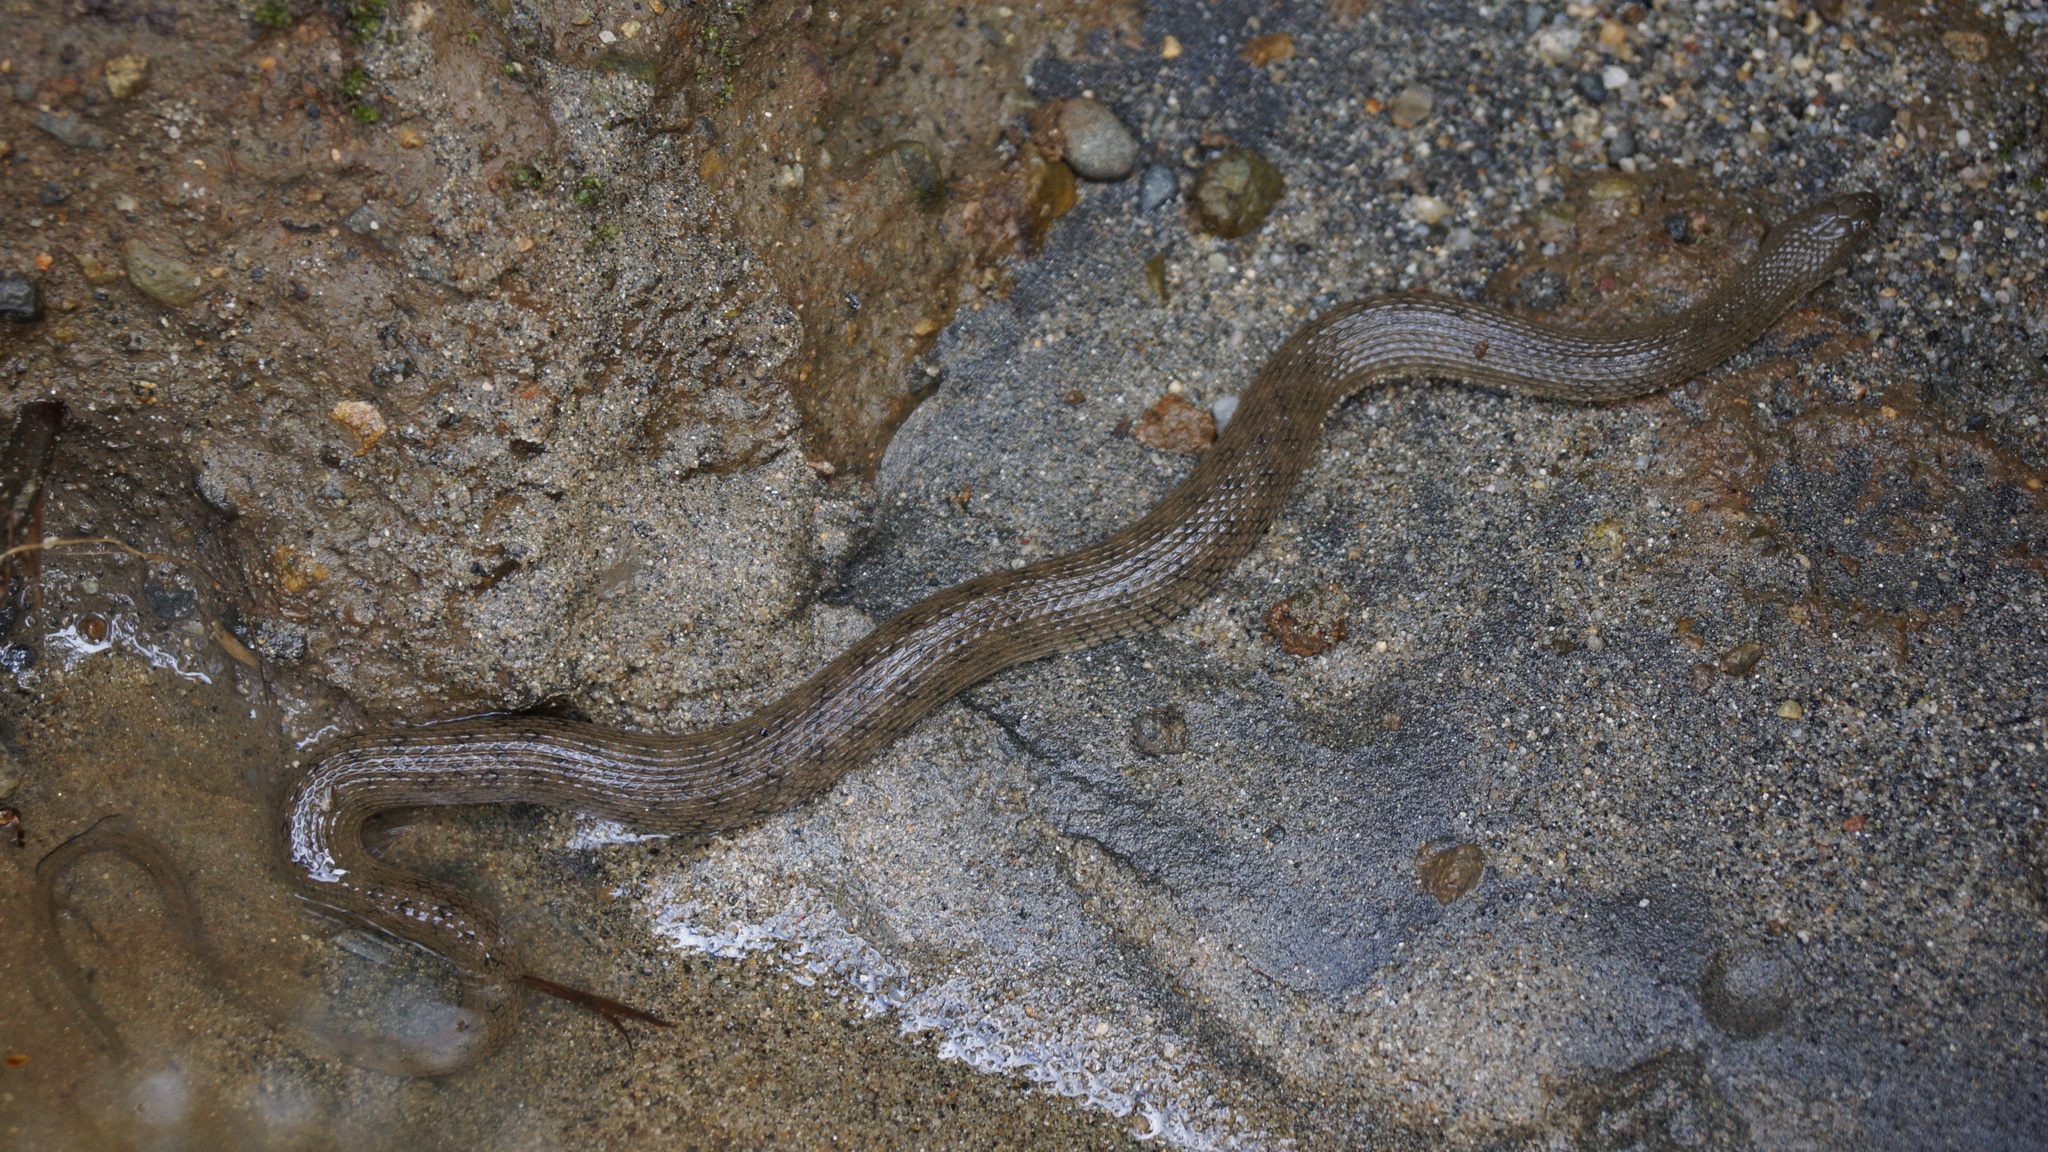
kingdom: Animalia
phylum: Chordata
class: Squamata
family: Colubridae
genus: Helicops
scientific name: Helicops pastazae
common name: Shreve's keelback
